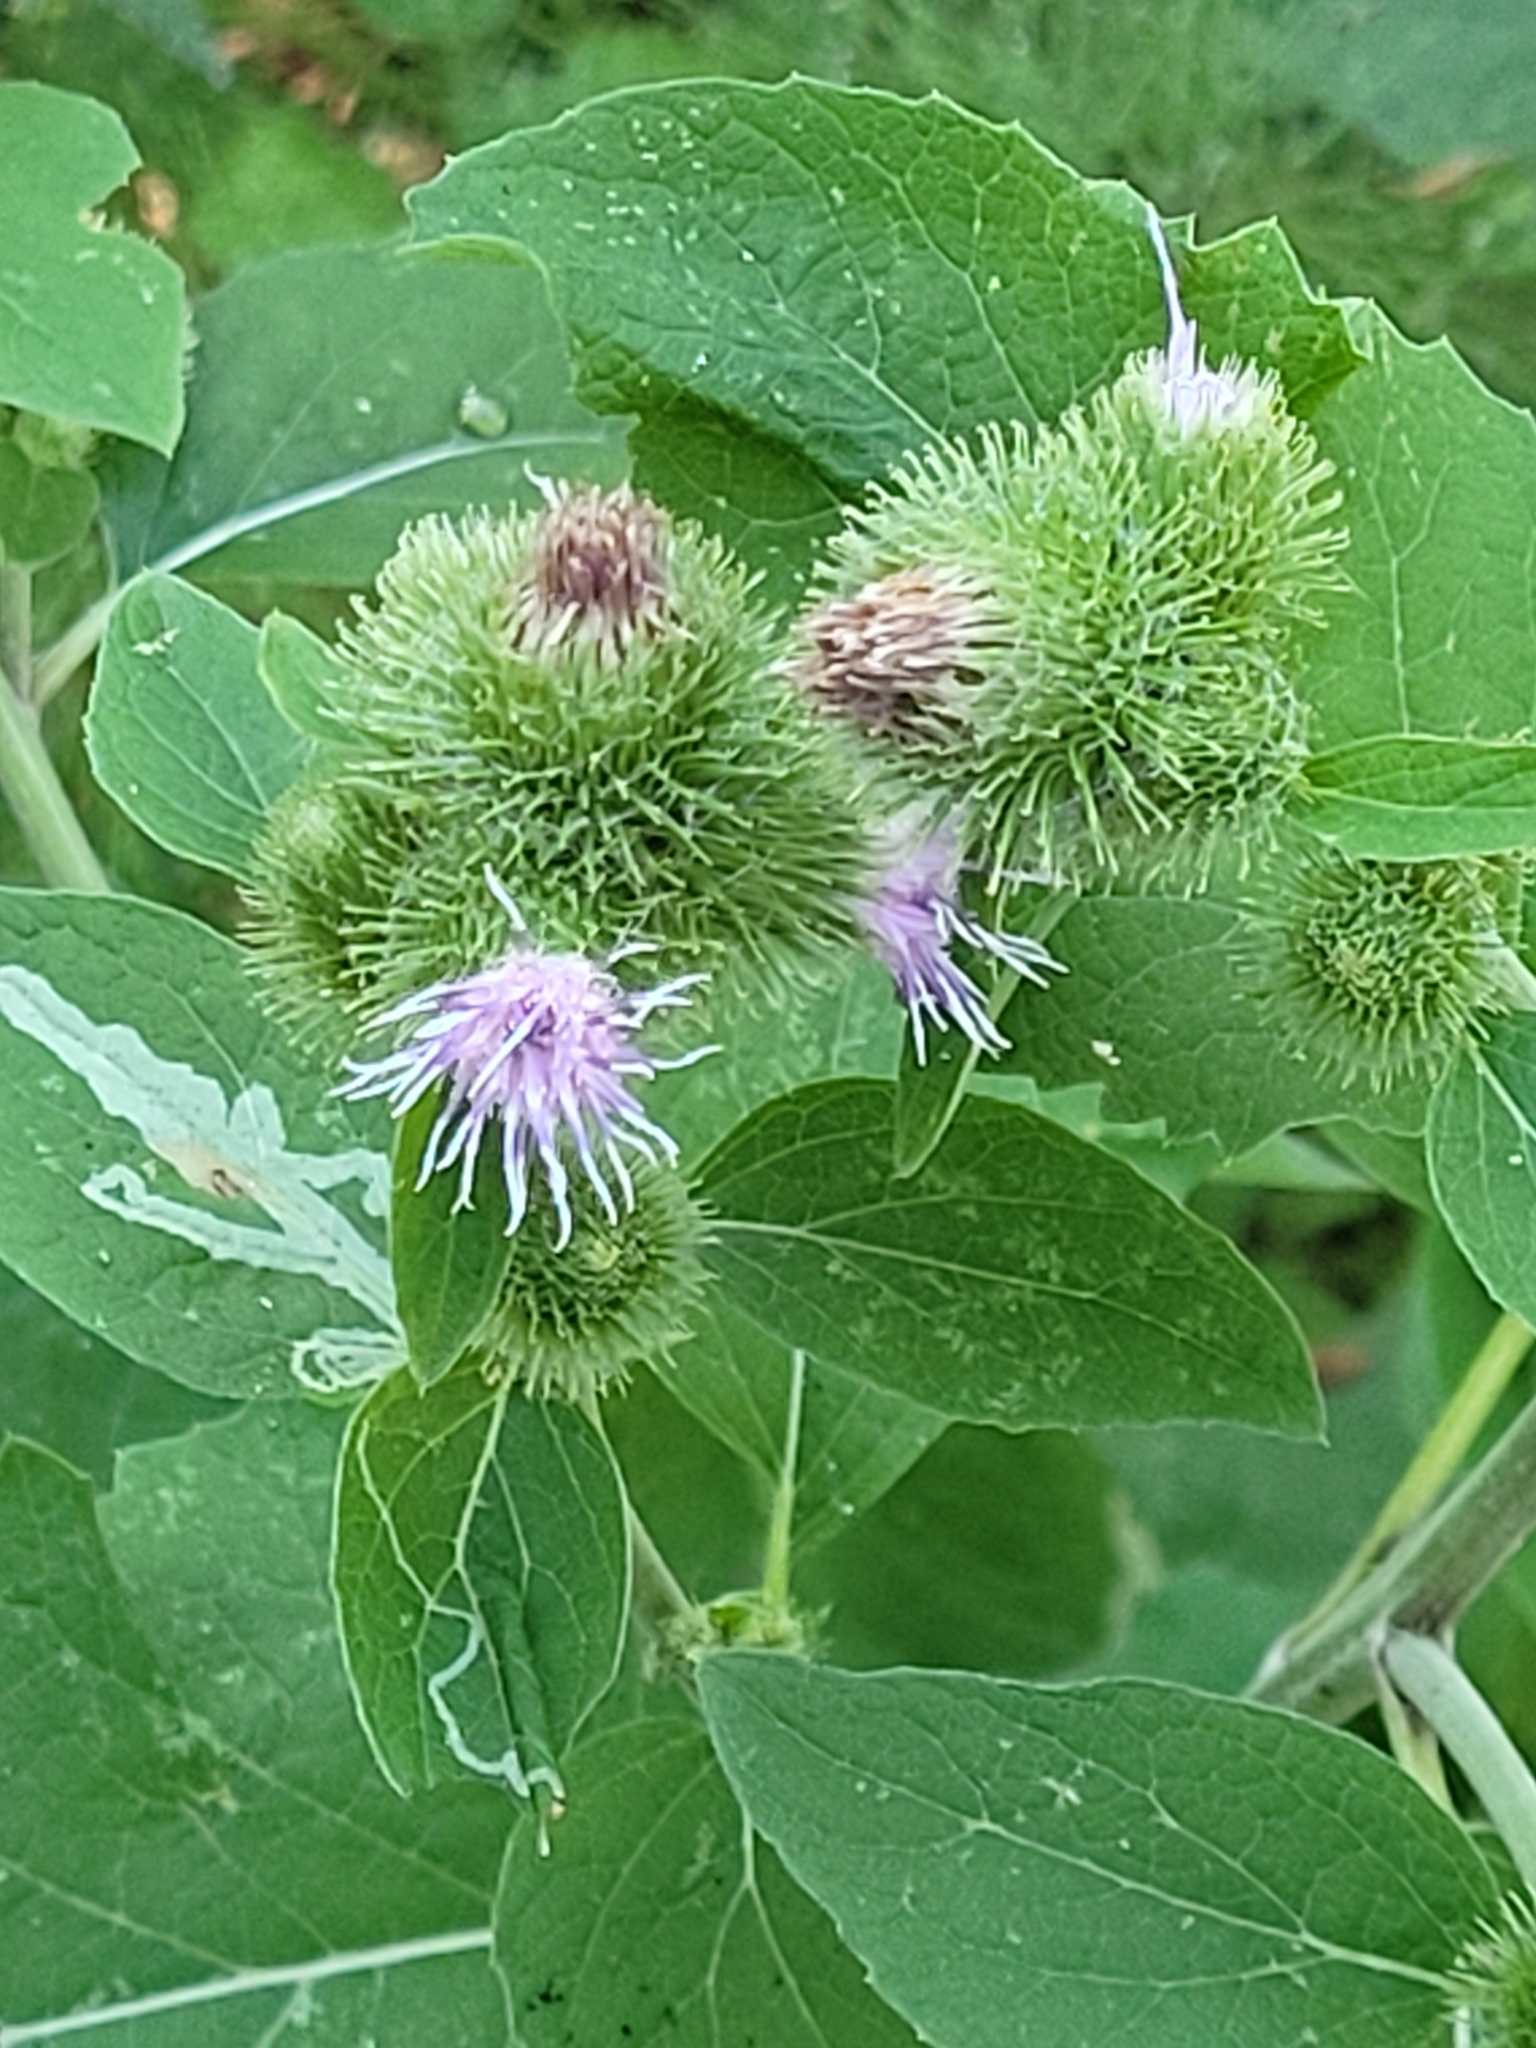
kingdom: Plantae
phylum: Tracheophyta
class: Magnoliopsida
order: Asterales
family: Asteraceae
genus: Arctium
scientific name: Arctium minus
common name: Lesser burdock
